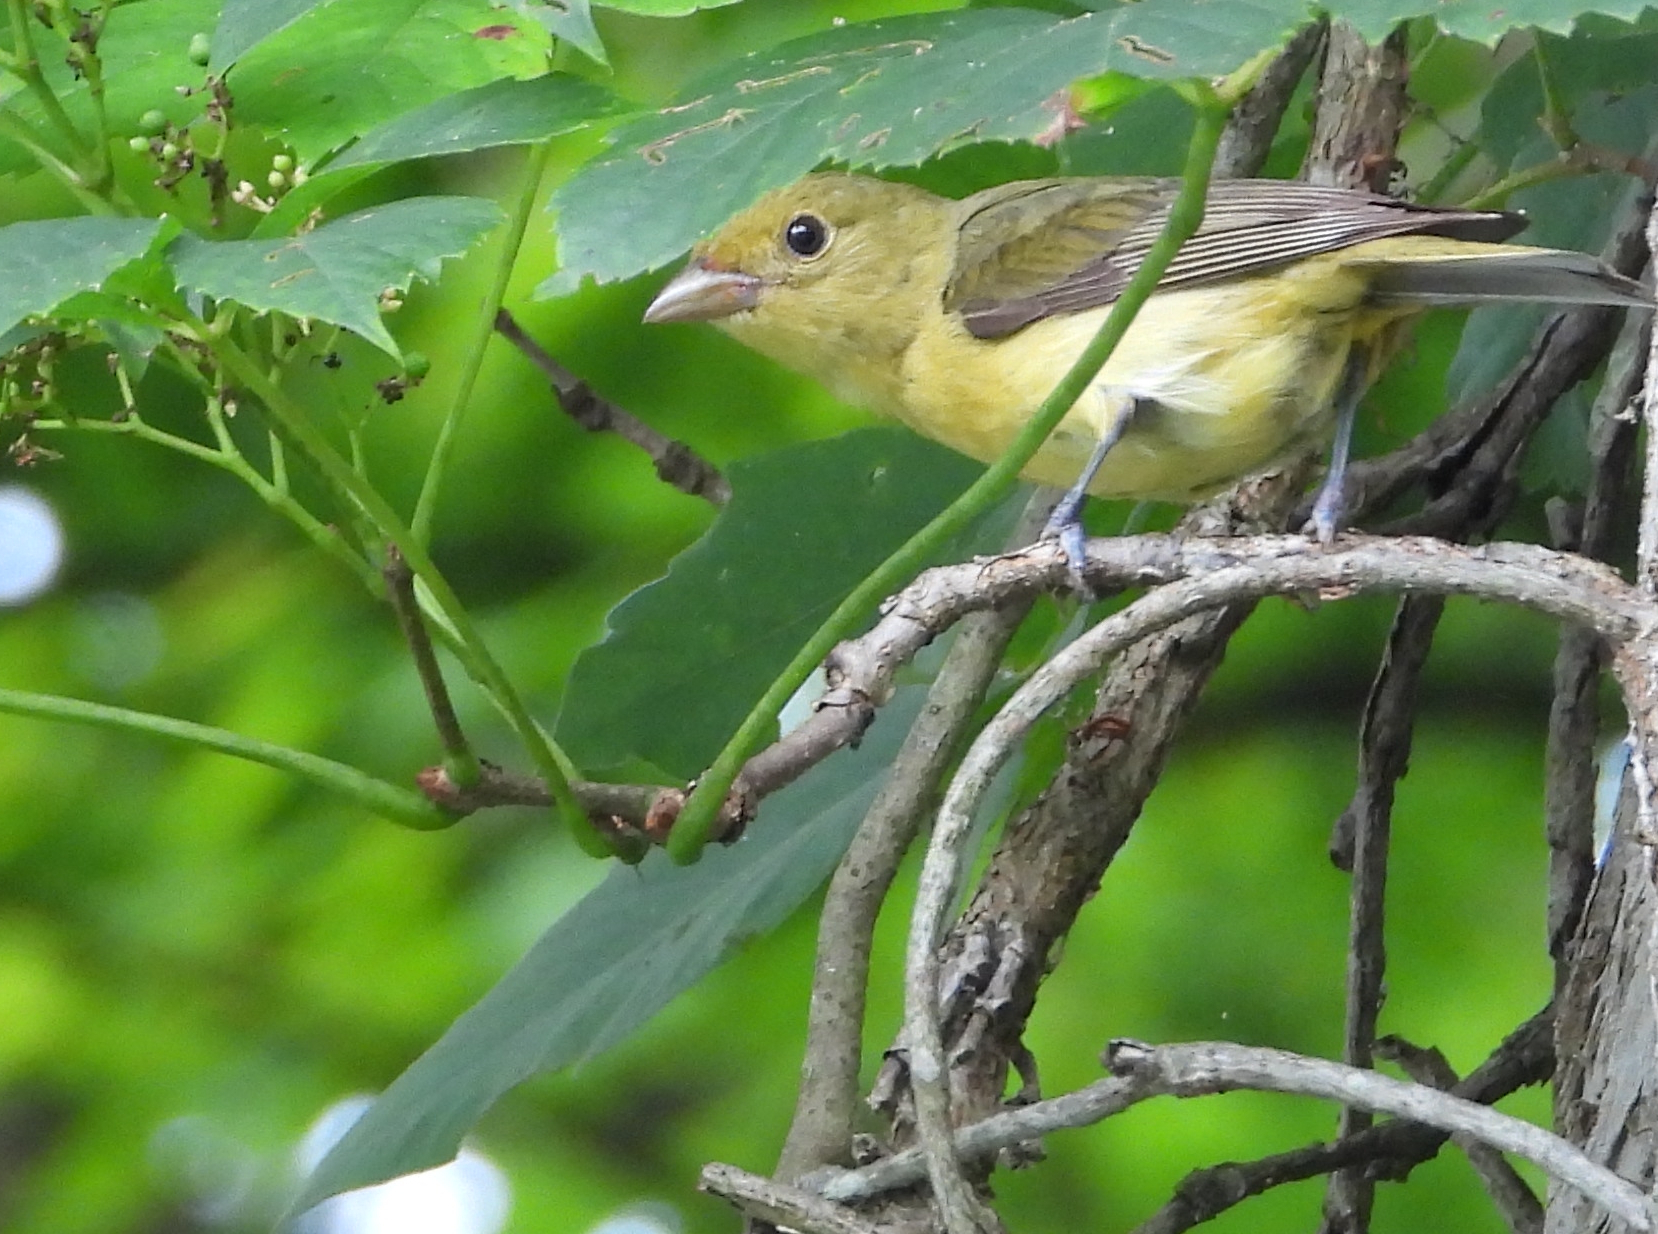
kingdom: Animalia
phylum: Chordata
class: Aves
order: Passeriformes
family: Cardinalidae
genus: Piranga
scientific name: Piranga olivacea
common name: Scarlet tanager
